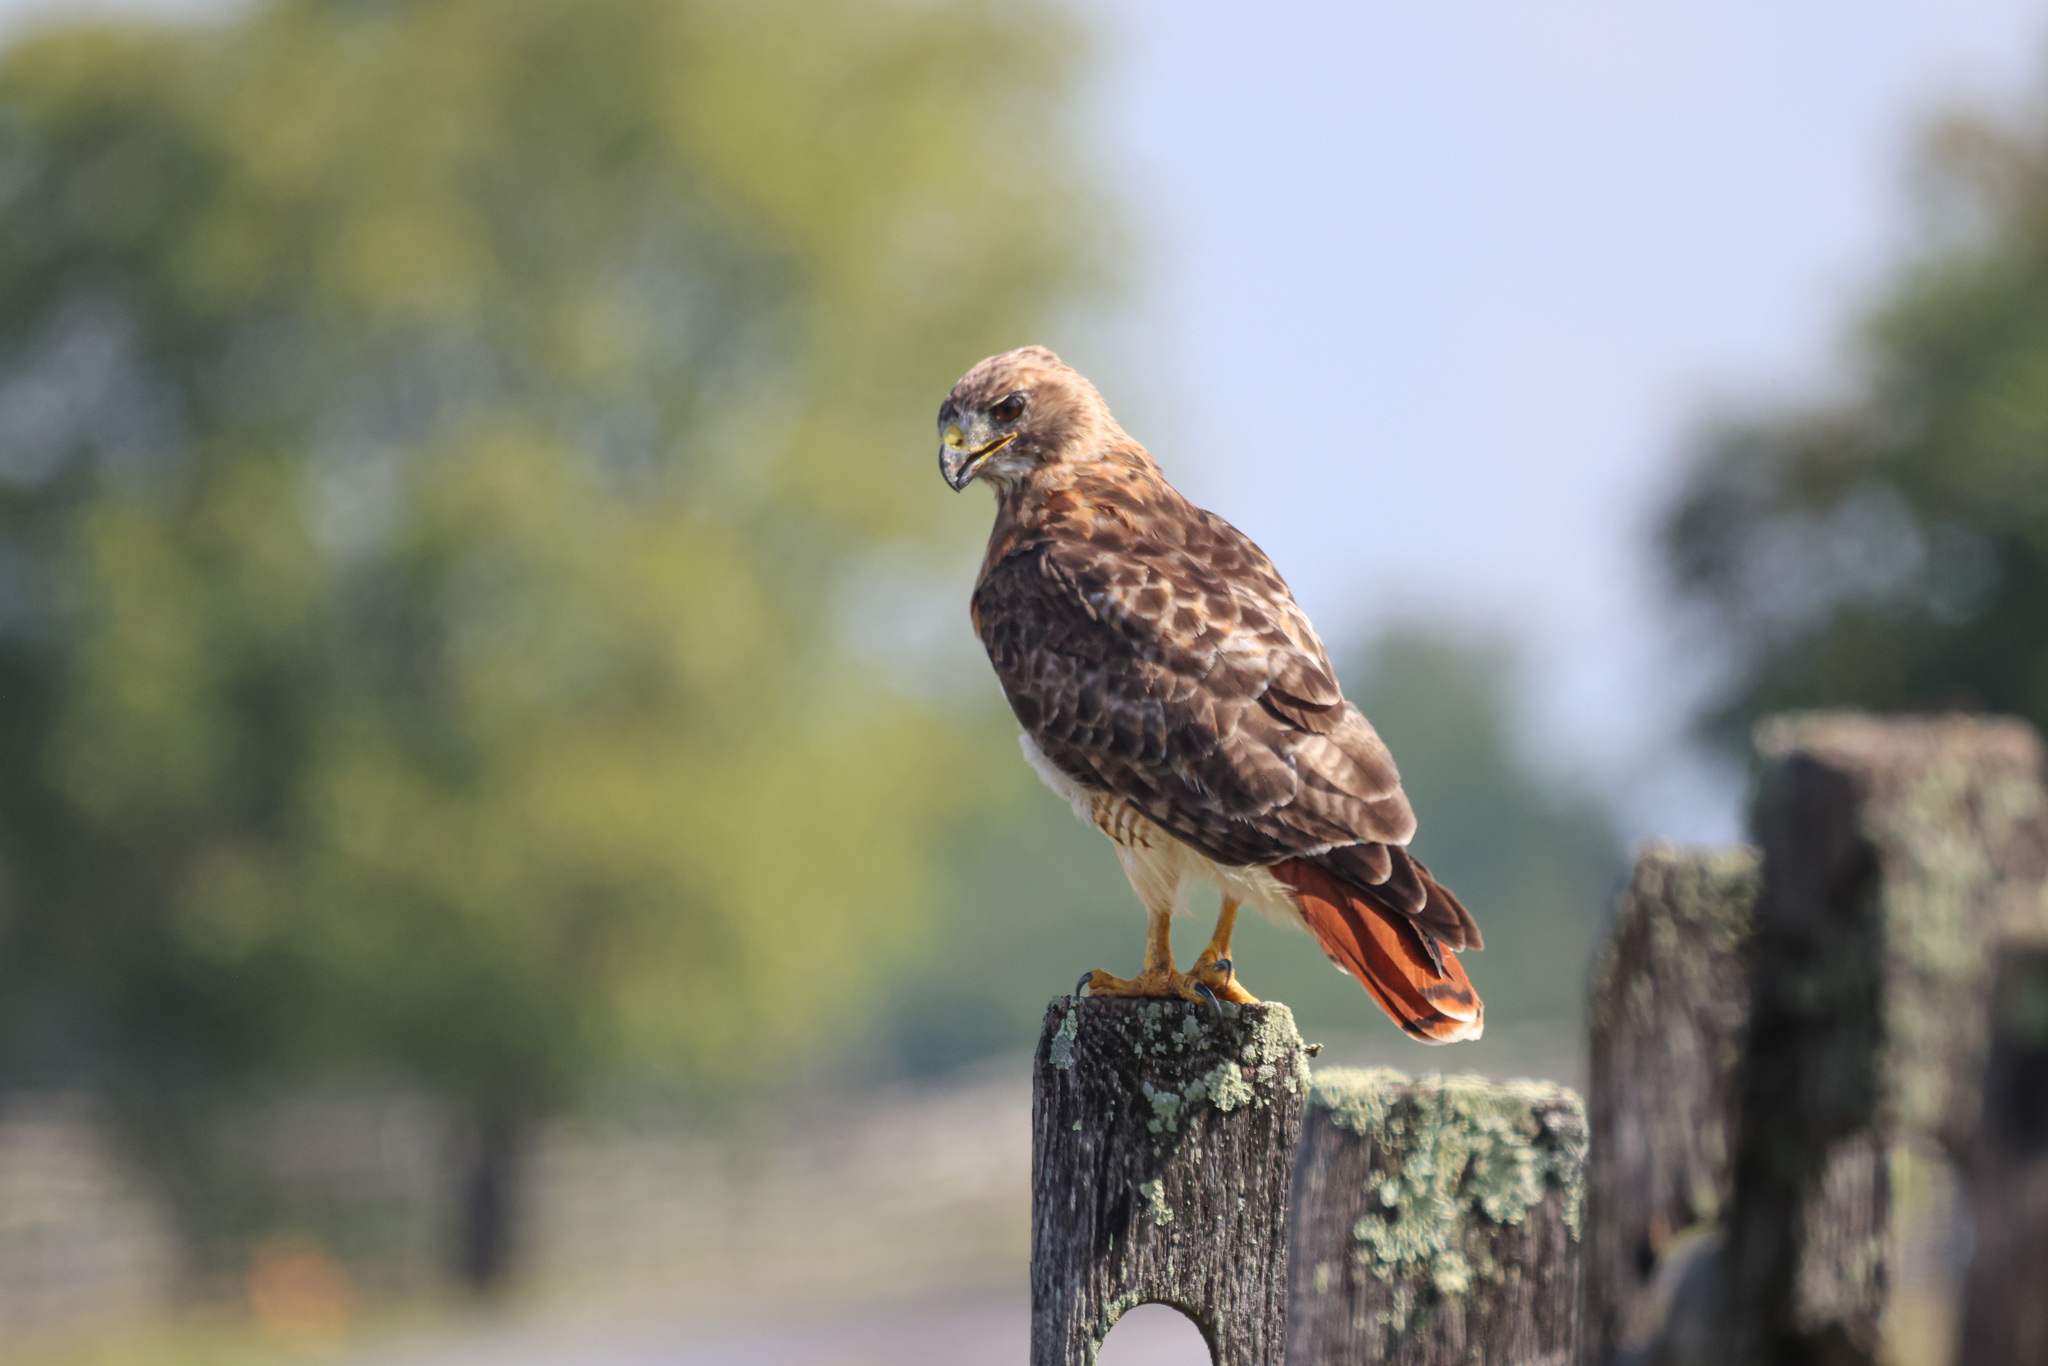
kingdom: Animalia
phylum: Chordata
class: Aves
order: Accipitriformes
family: Accipitridae
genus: Buteo
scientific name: Buteo jamaicensis
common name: Red-tailed hawk
